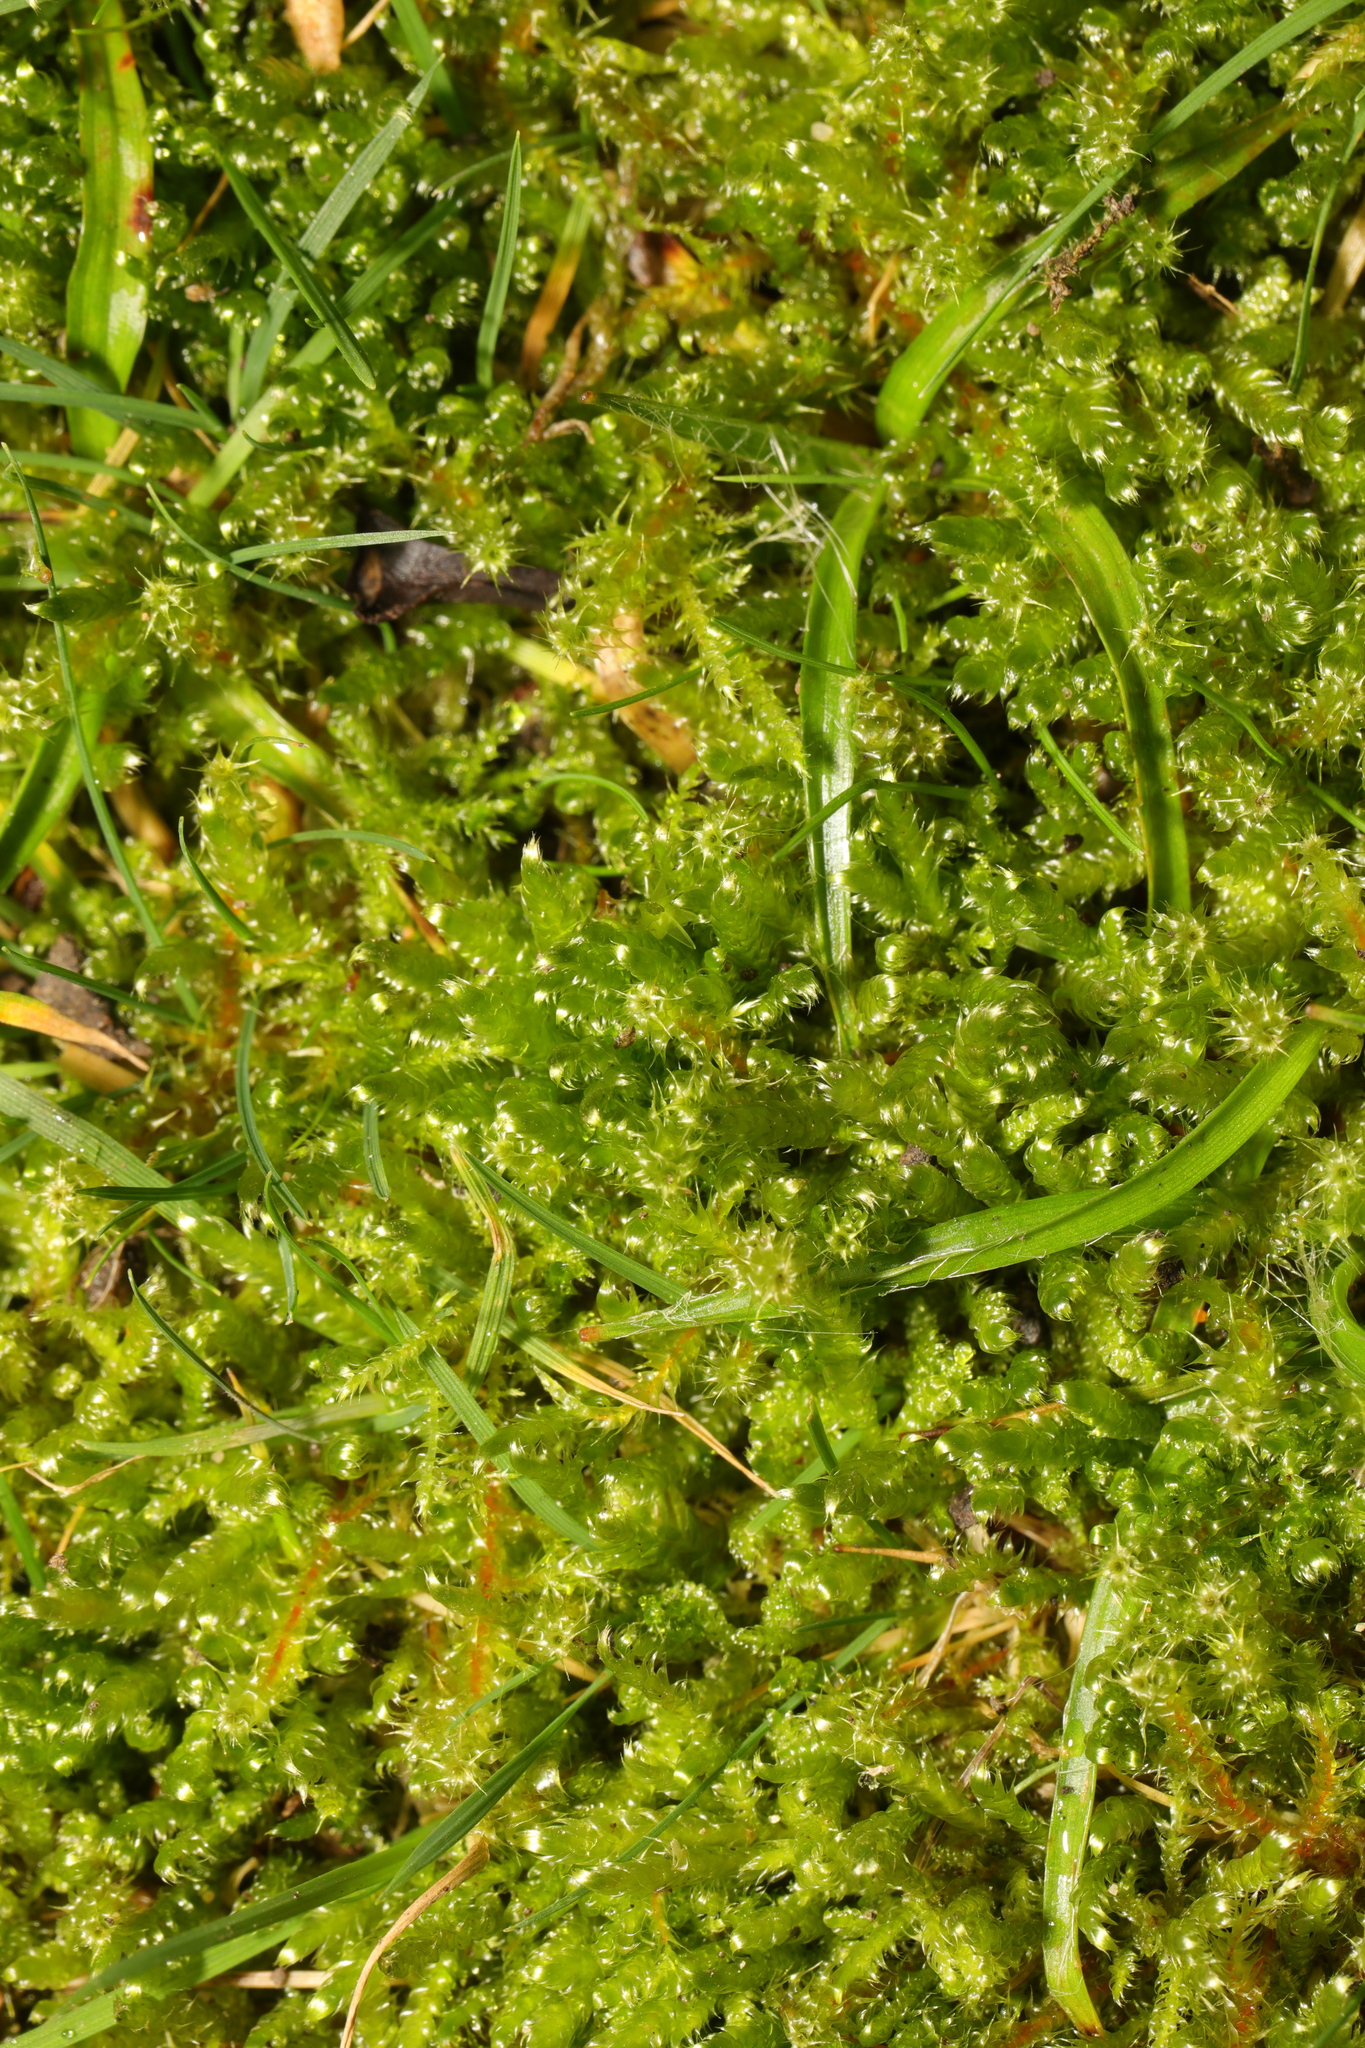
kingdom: Plantae
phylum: Bryophyta
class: Bryopsida
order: Hypnales
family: Hylocomiaceae
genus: Rhytidiadelphus
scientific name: Rhytidiadelphus squarrosus
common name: Springy turf-moss
